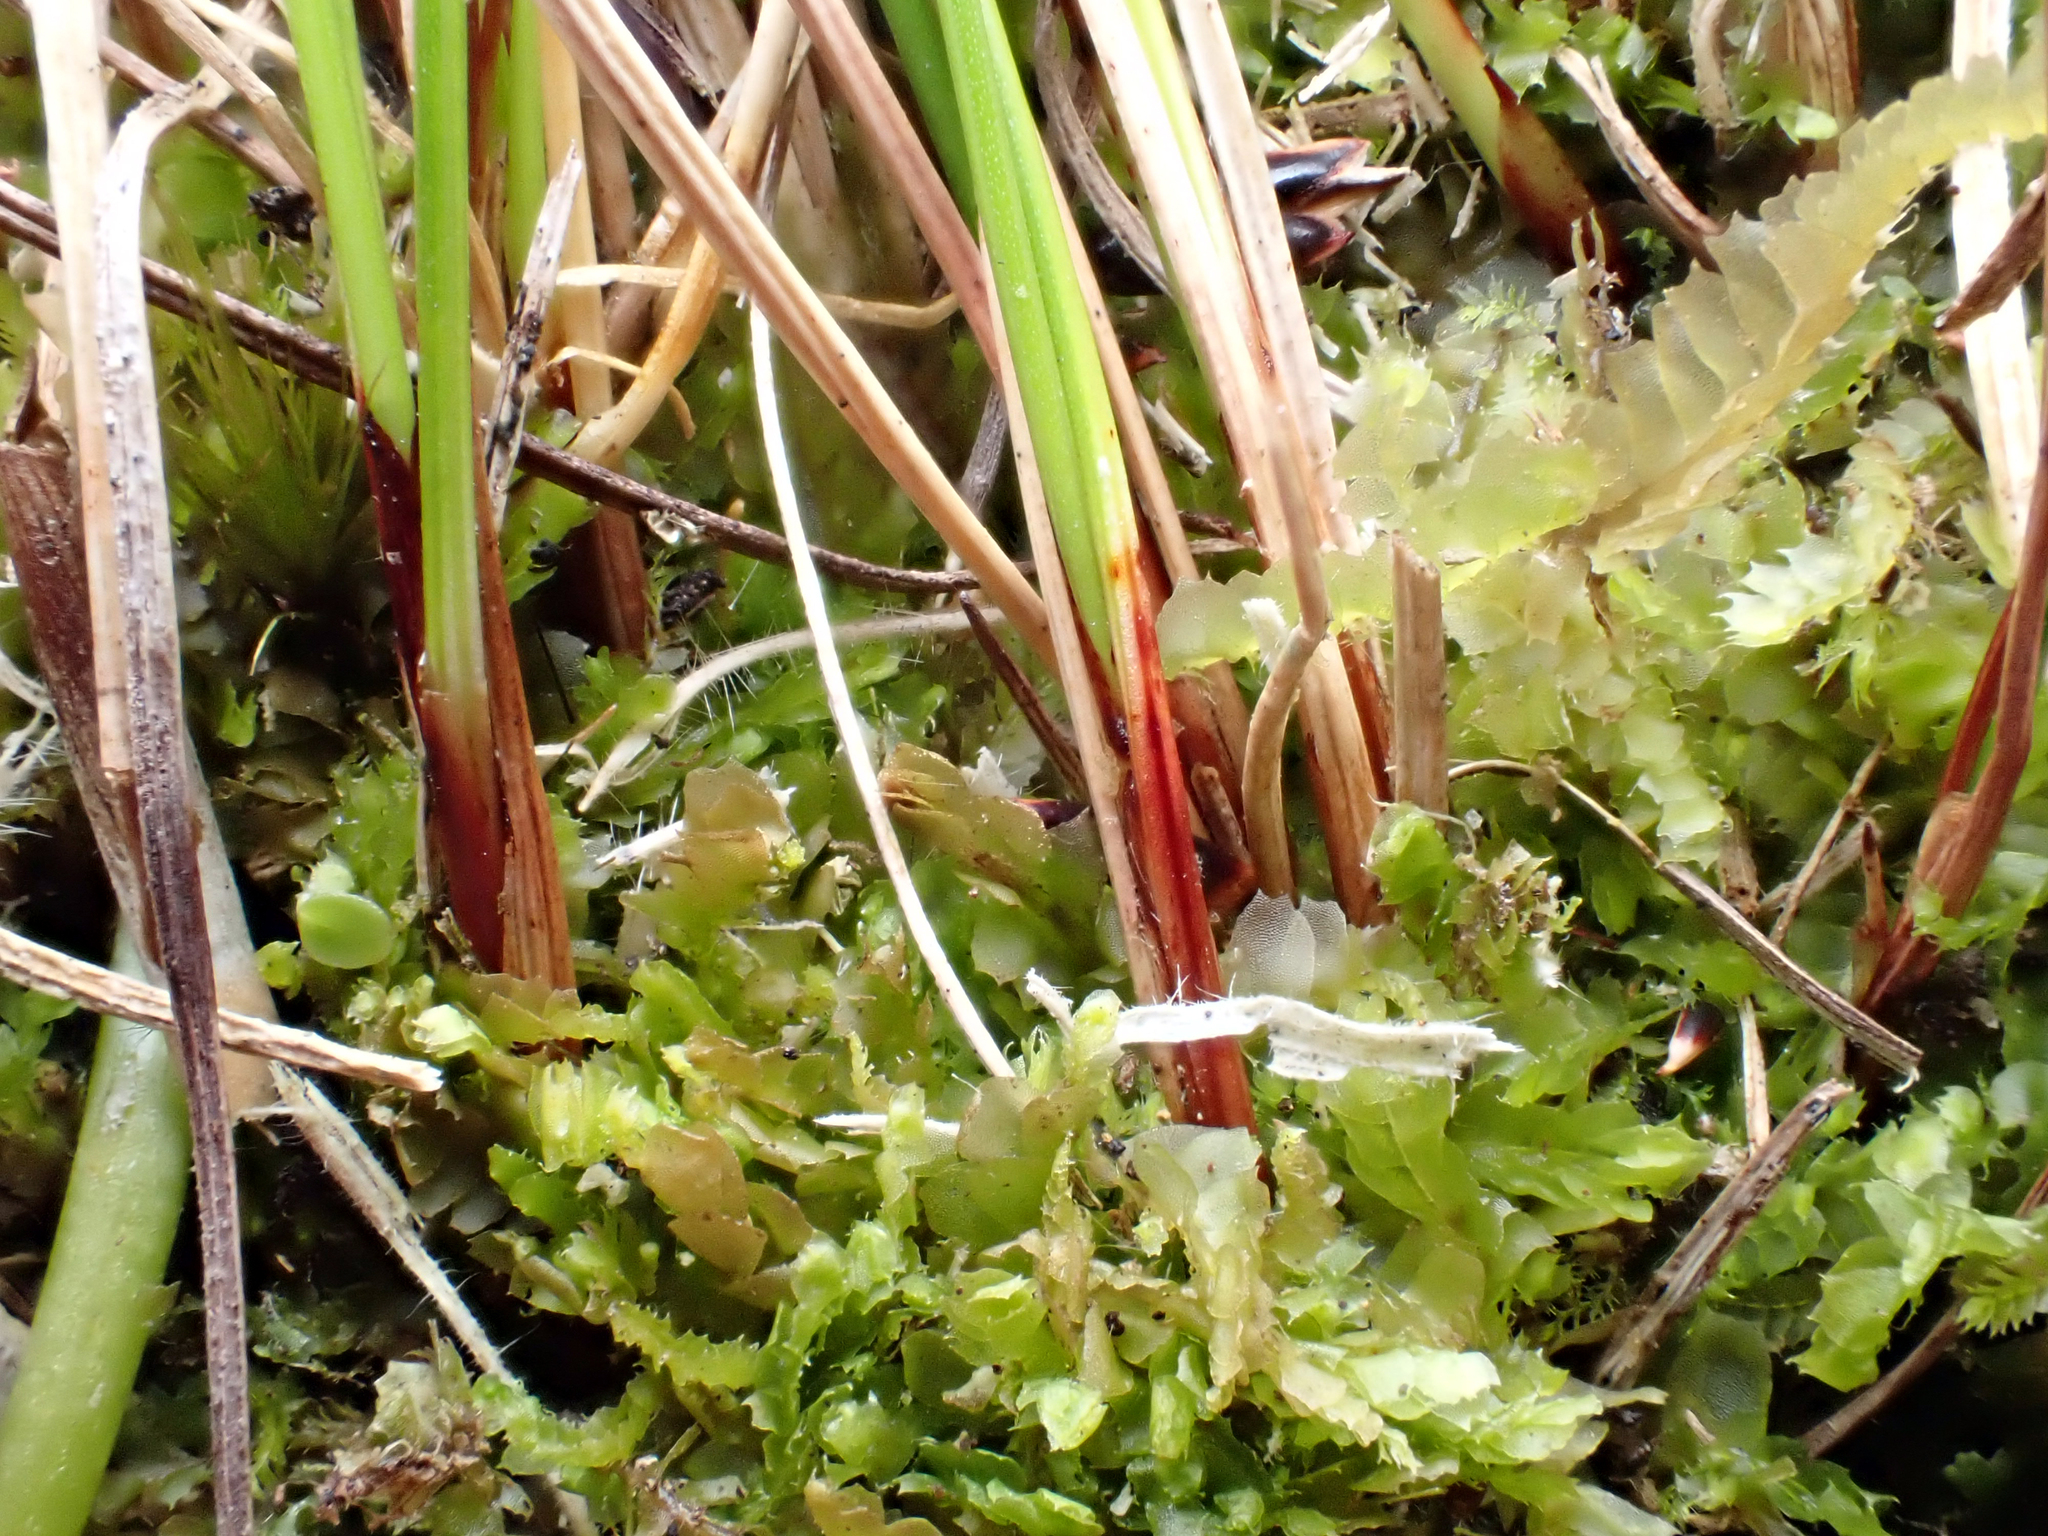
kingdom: Plantae
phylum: Tracheophyta
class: Liliopsida
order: Poales
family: Cyperaceae
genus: Schoenus
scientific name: Schoenus nitens
